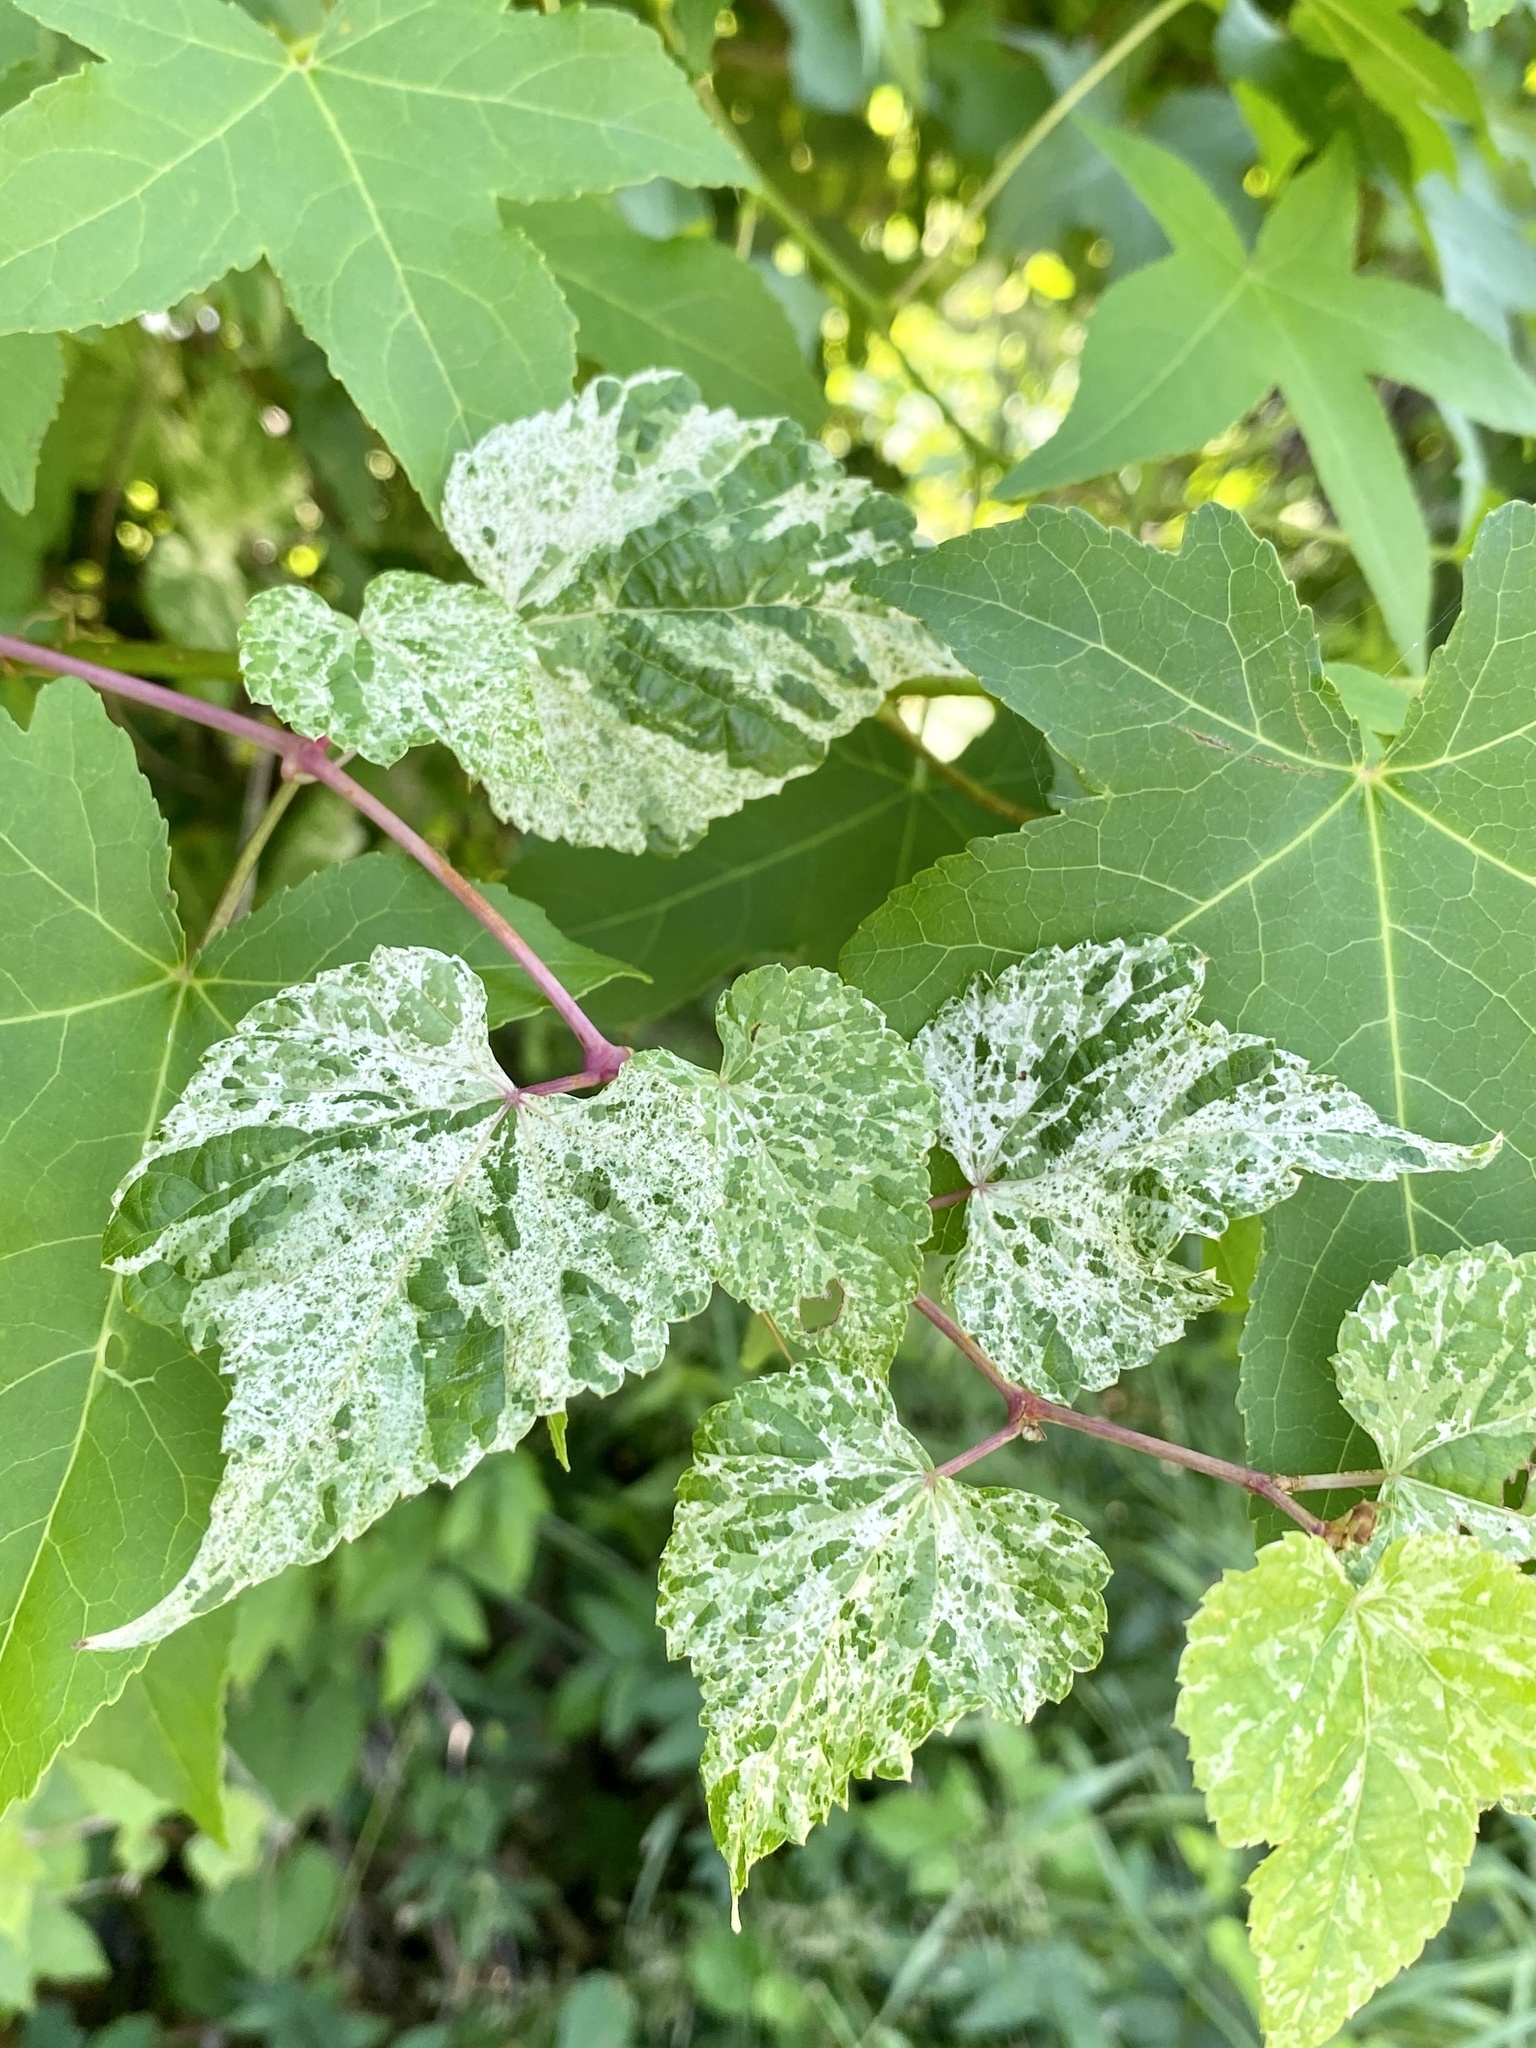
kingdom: Plantae
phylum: Tracheophyta
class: Magnoliopsida
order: Vitales
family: Vitaceae
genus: Ampelopsis
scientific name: Ampelopsis glandulosa
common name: Amur peppervine
